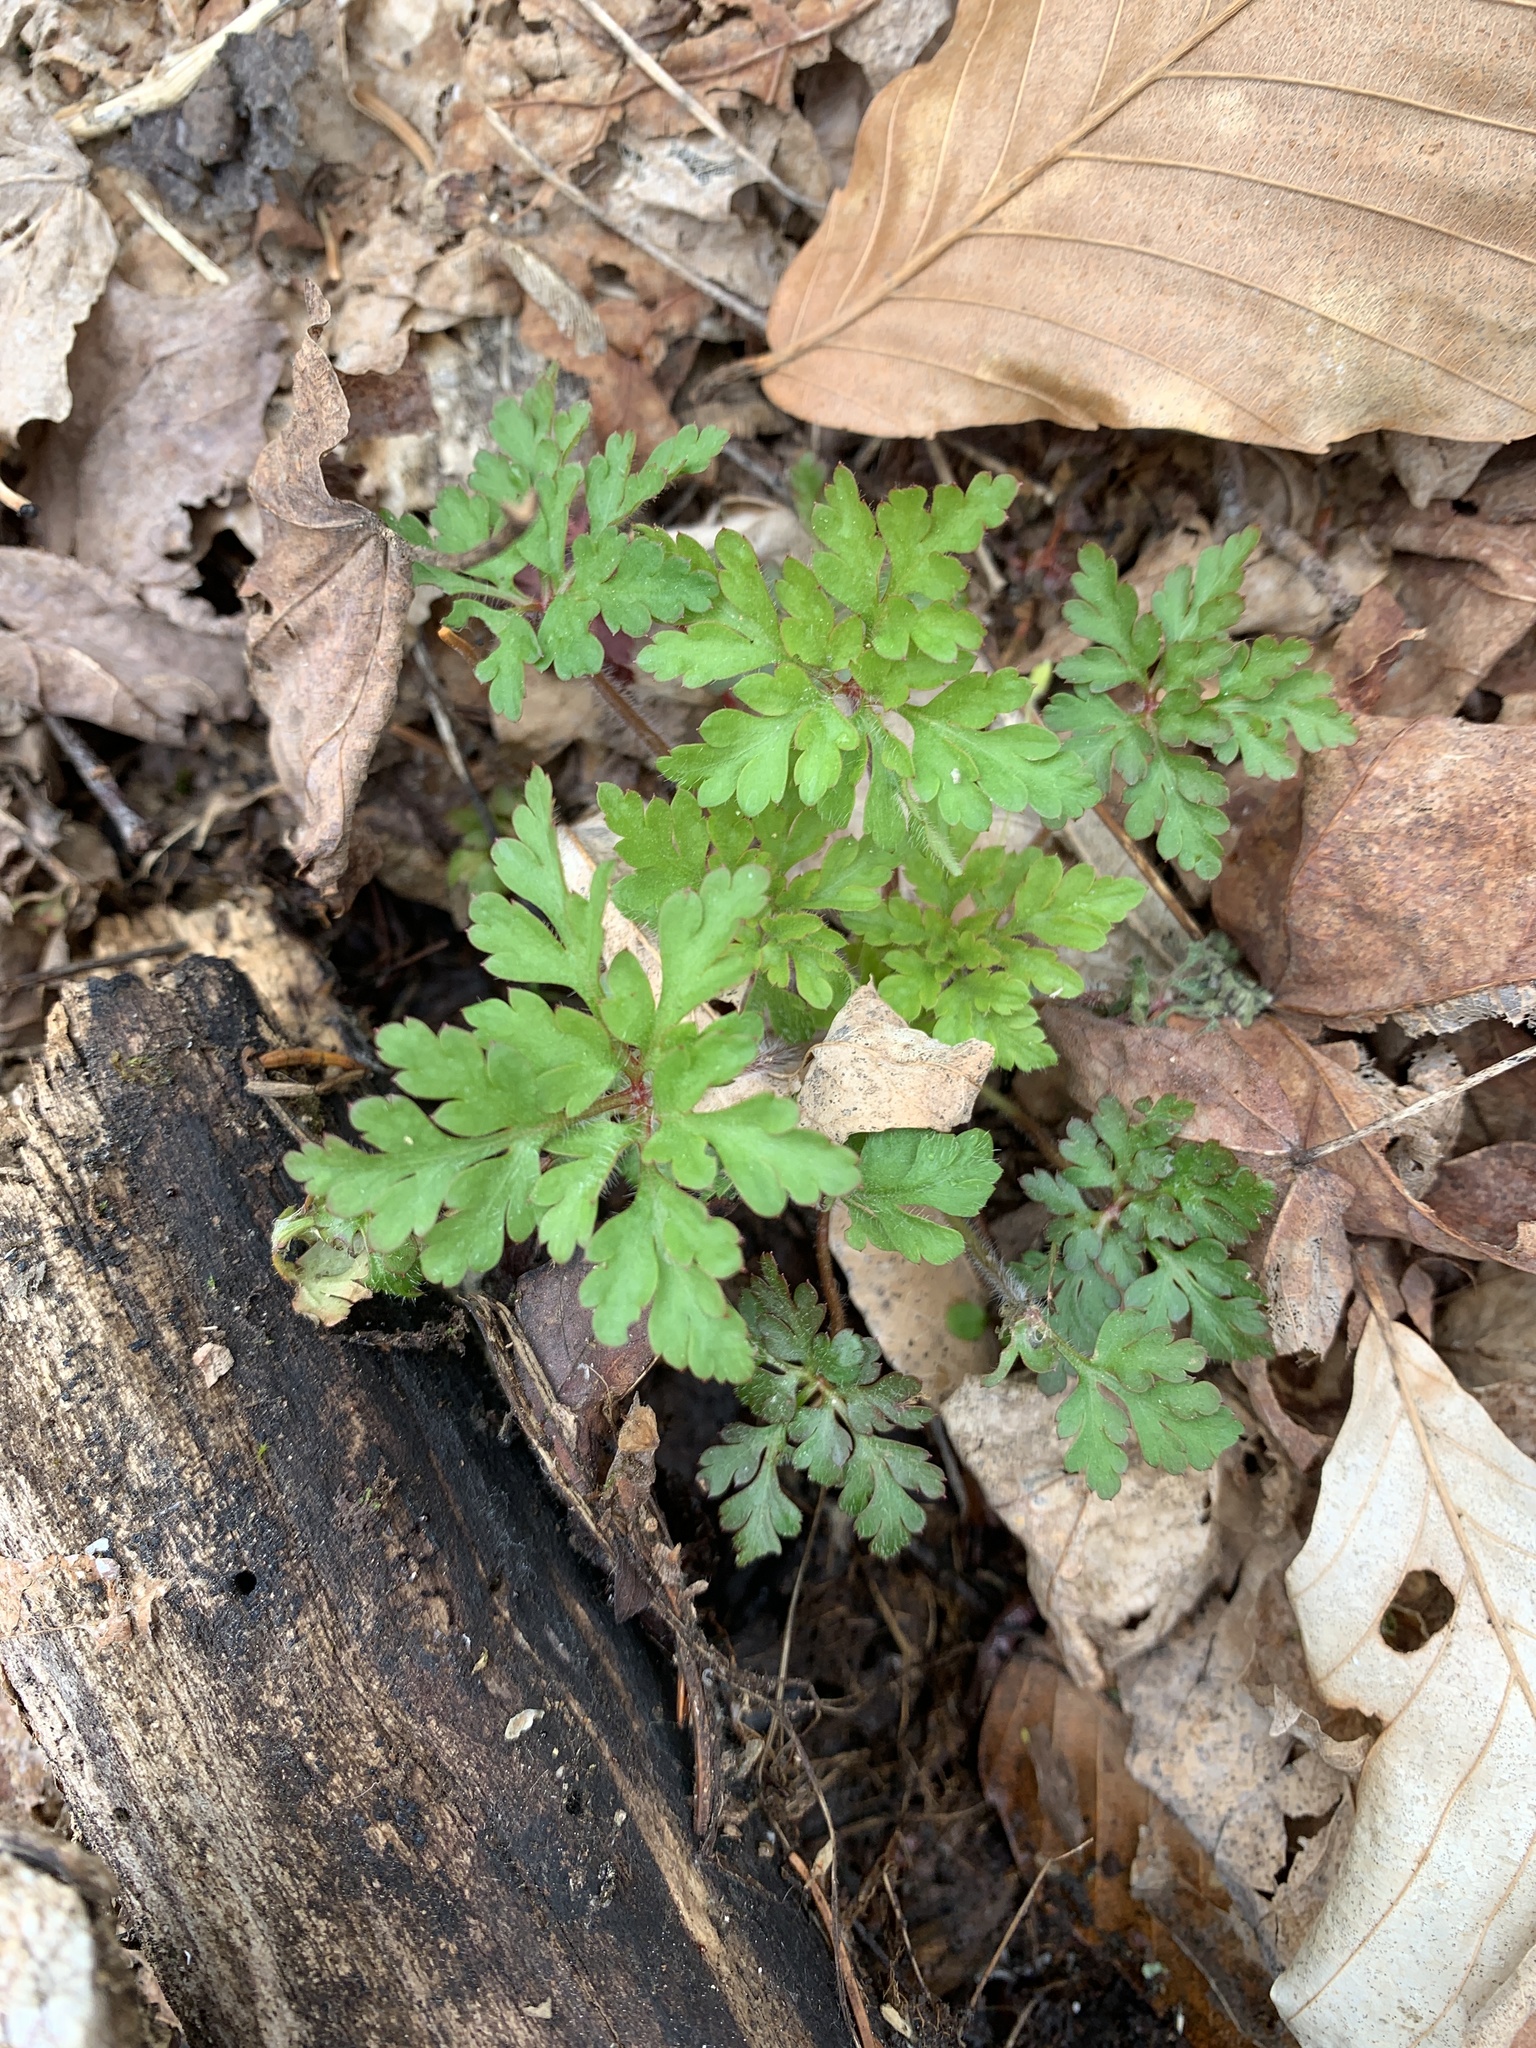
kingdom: Plantae
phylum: Tracheophyta
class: Magnoliopsida
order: Geraniales
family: Geraniaceae
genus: Geranium
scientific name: Geranium robertianum
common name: Herb-robert
